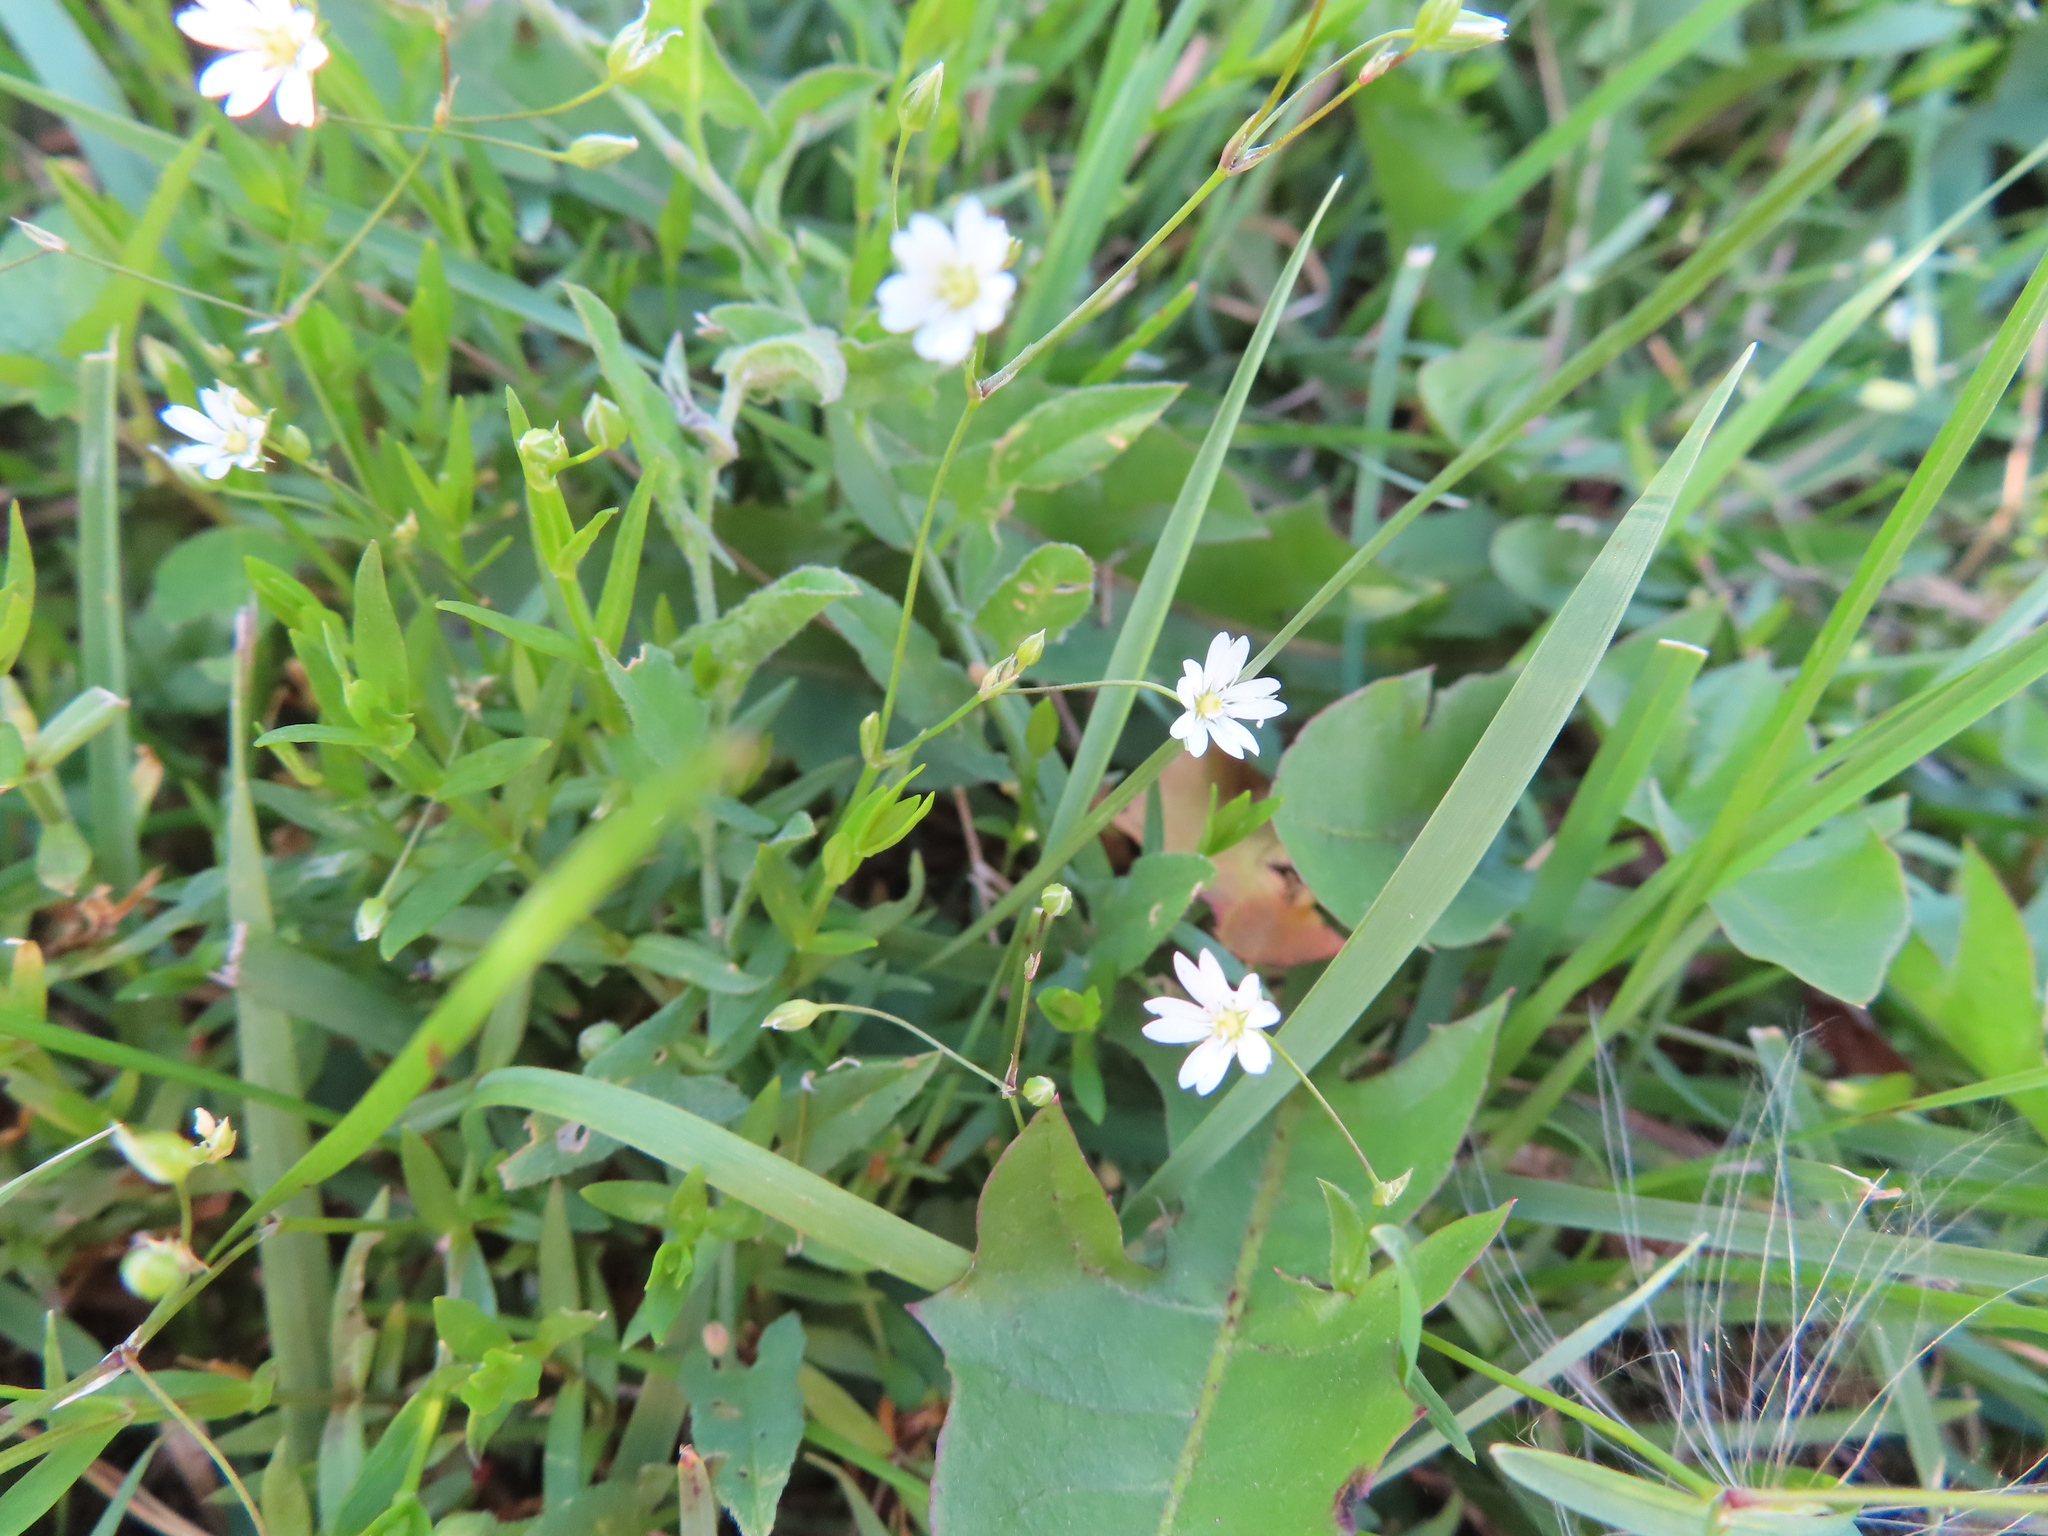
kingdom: Plantae
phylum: Tracheophyta
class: Magnoliopsida
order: Caryophyllales
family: Caryophyllaceae
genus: Stellaria
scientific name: Stellaria graminea
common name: Grass-like starwort
